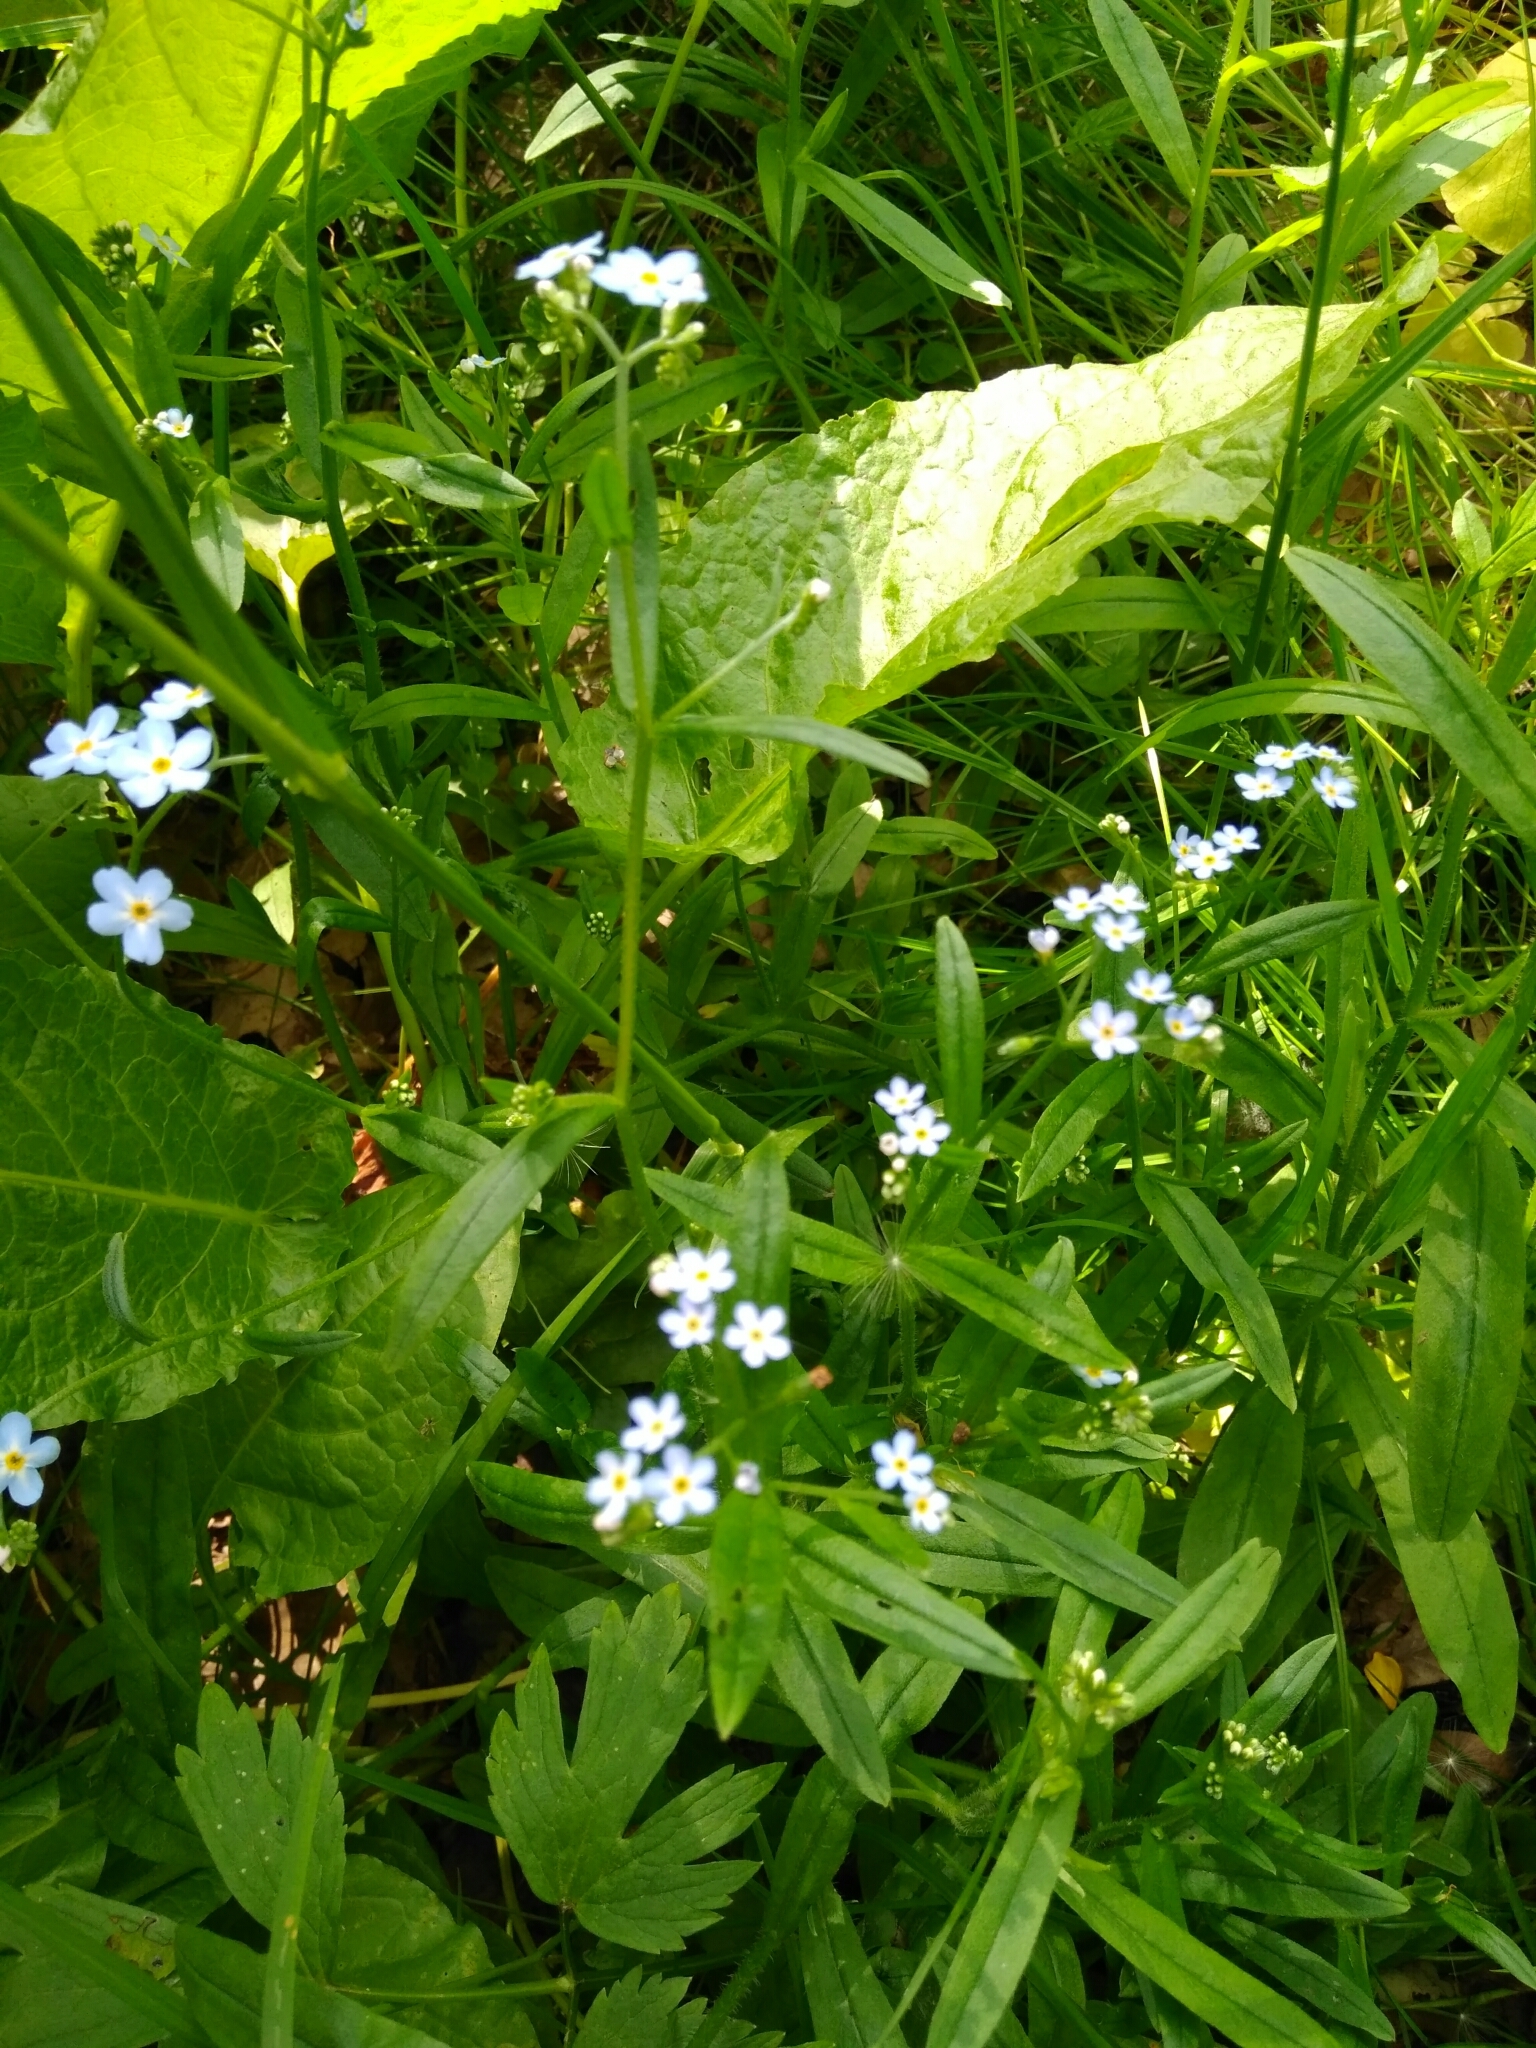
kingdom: Plantae
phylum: Tracheophyta
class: Magnoliopsida
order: Boraginales
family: Boraginaceae
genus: Myosotis
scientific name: Myosotis scorpioides
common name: Water forget-me-not
